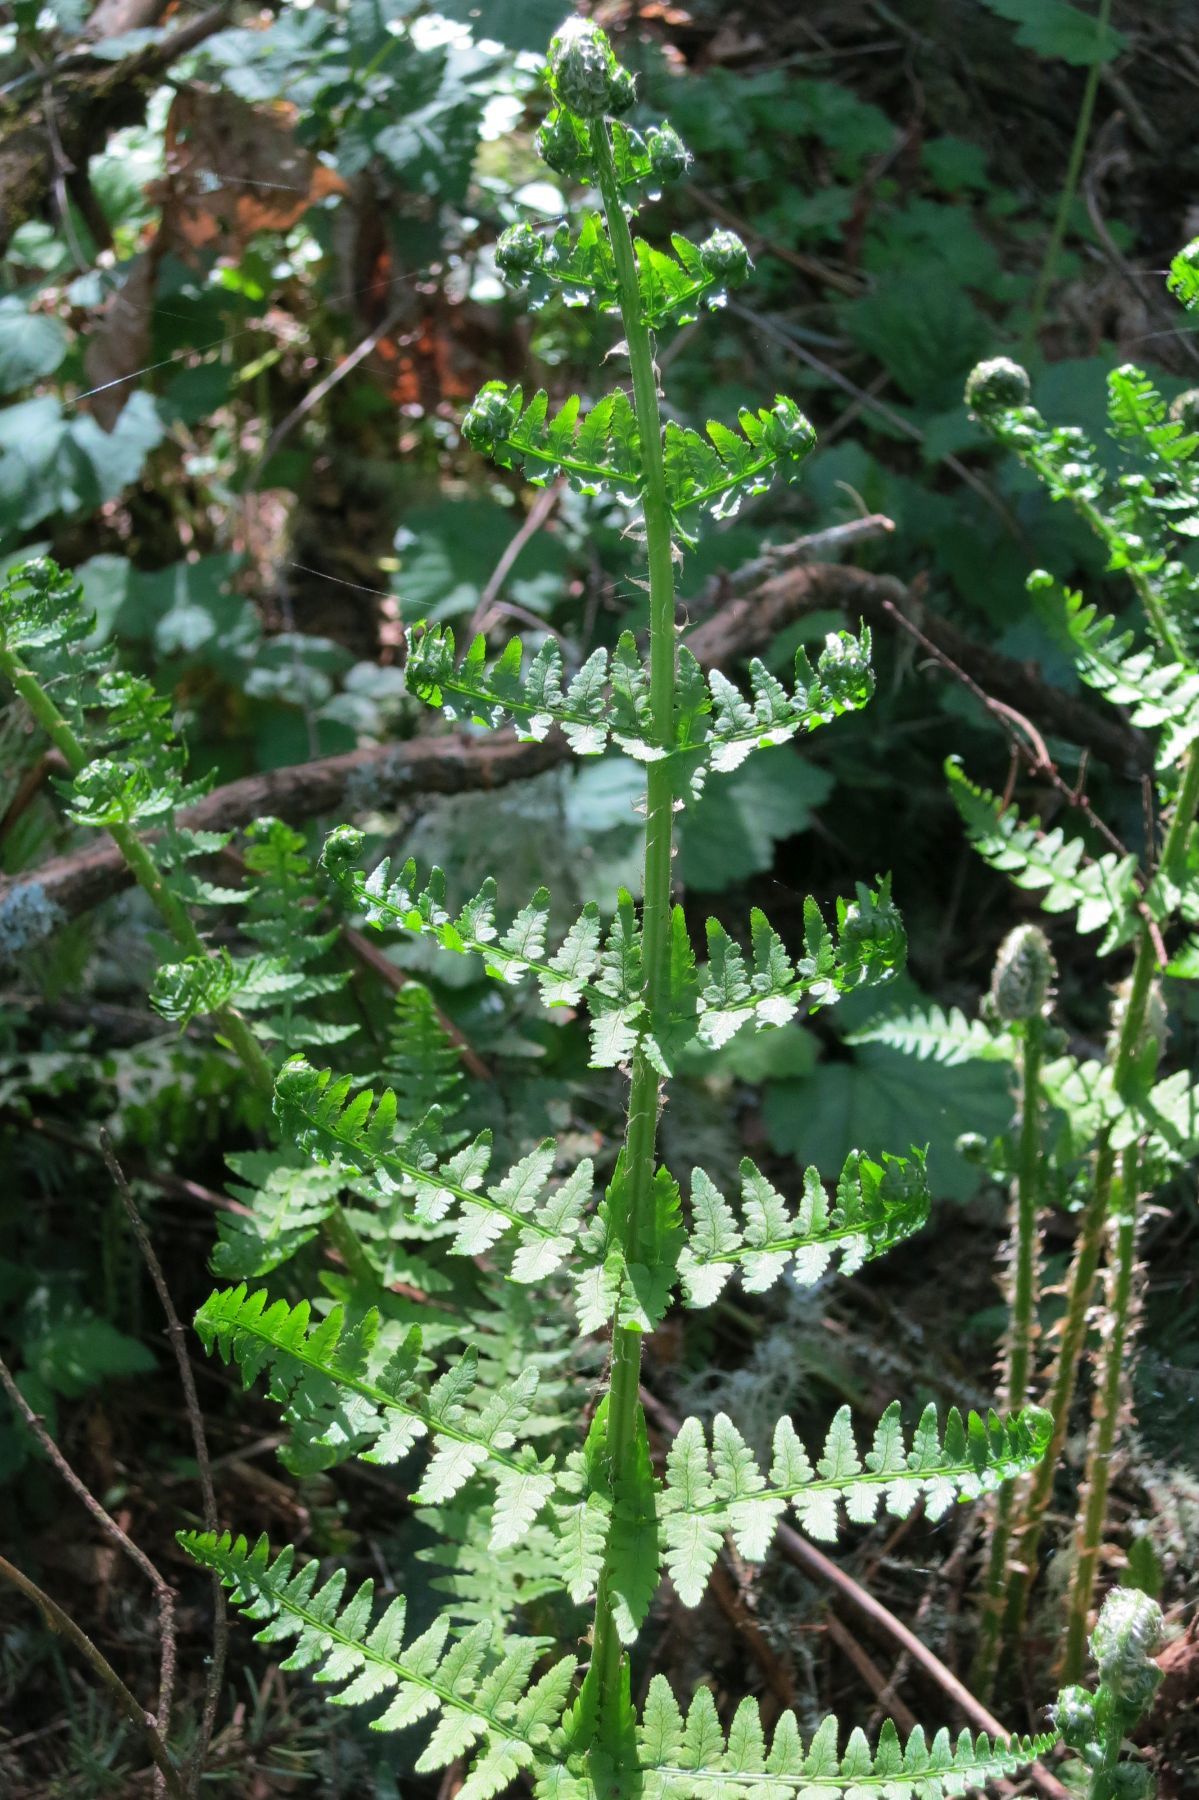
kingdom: Plantae
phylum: Tracheophyta
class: Polypodiopsida
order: Polypodiales
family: Dryopteridaceae
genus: Dryopteris
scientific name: Dryopteris arguta
